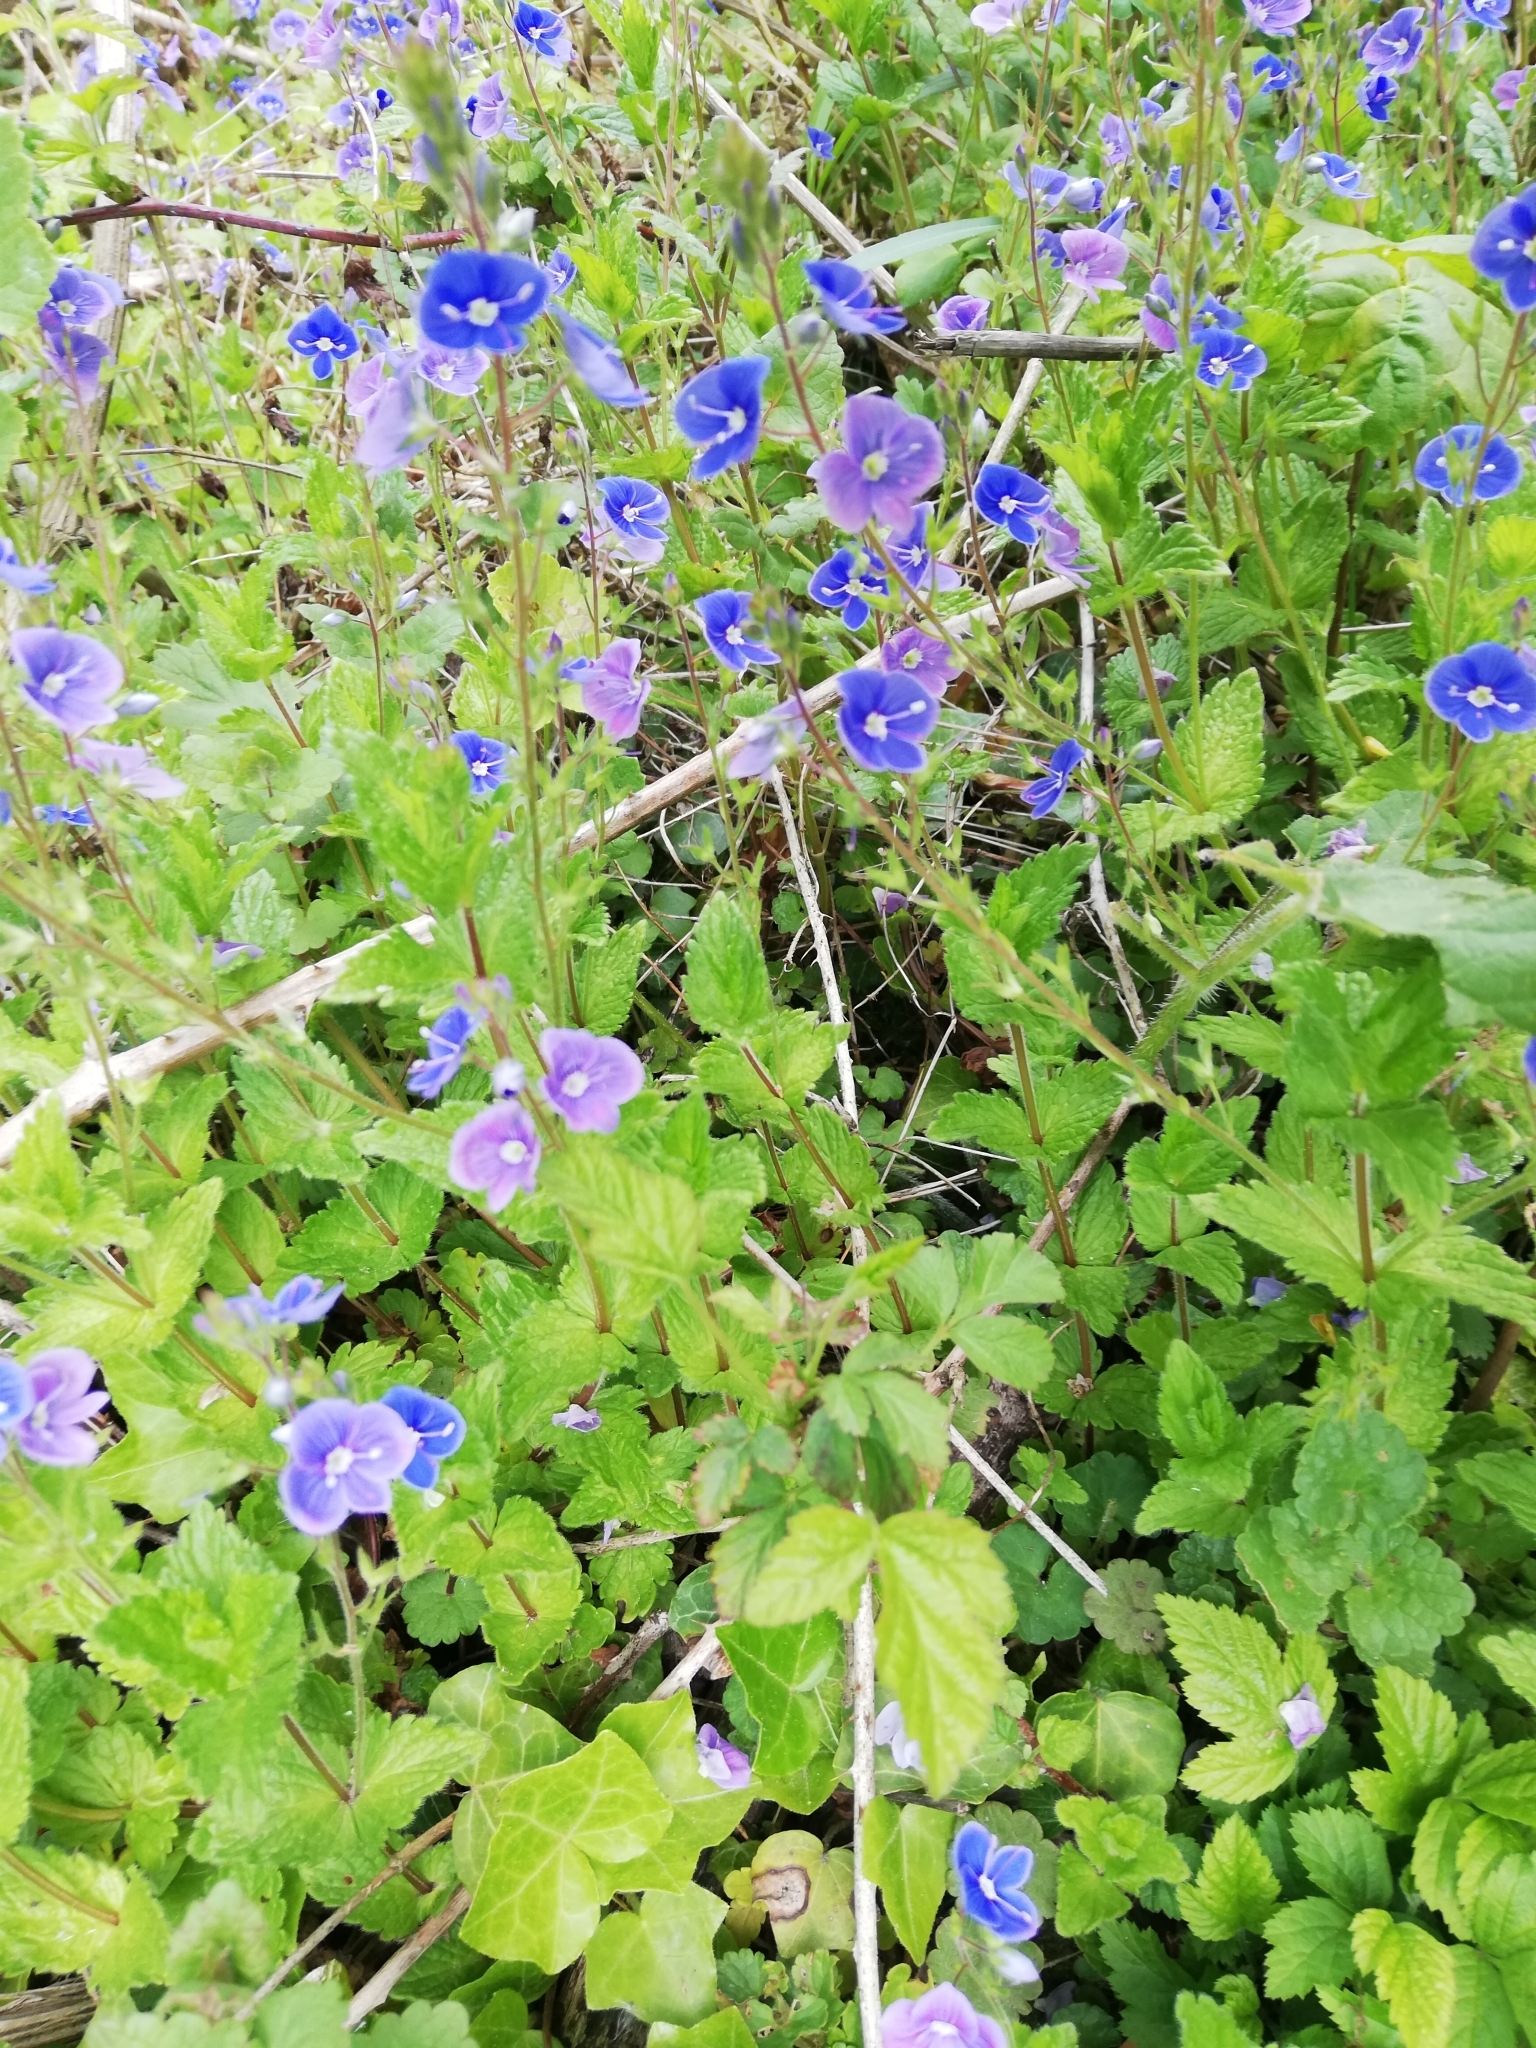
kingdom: Plantae
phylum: Tracheophyta
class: Magnoliopsida
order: Lamiales
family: Plantaginaceae
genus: Veronica
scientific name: Veronica chamaedrys
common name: Germander speedwell
